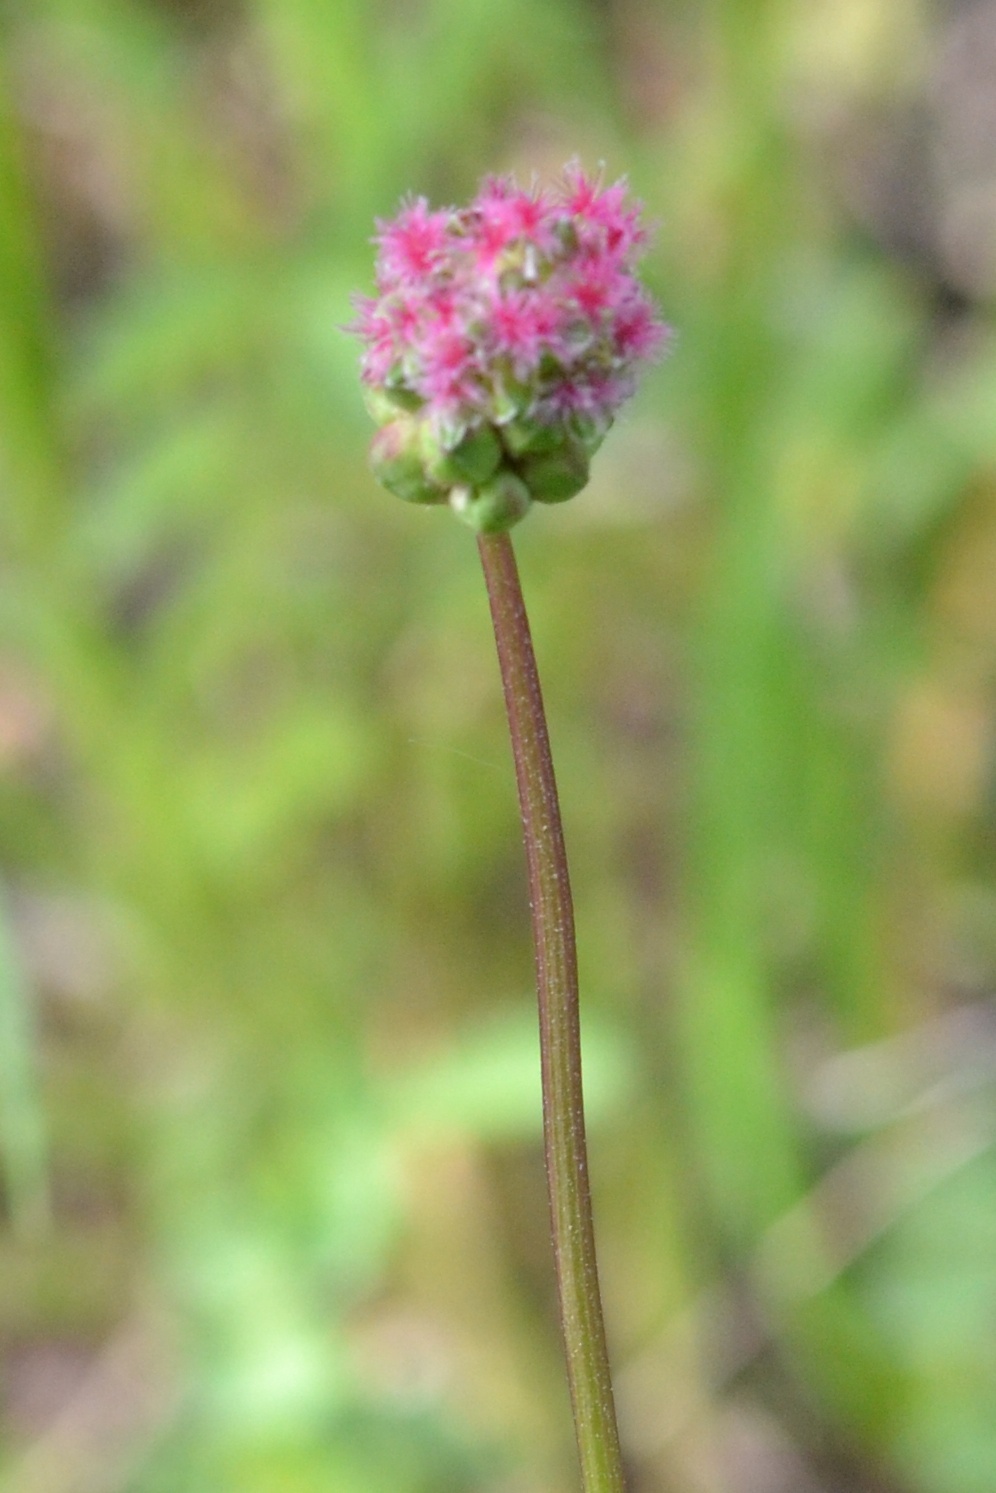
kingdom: Plantae
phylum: Tracheophyta
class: Magnoliopsida
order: Rosales
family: Rosaceae
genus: Poterium
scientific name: Poterium sanguisorba
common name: Salad burnet
